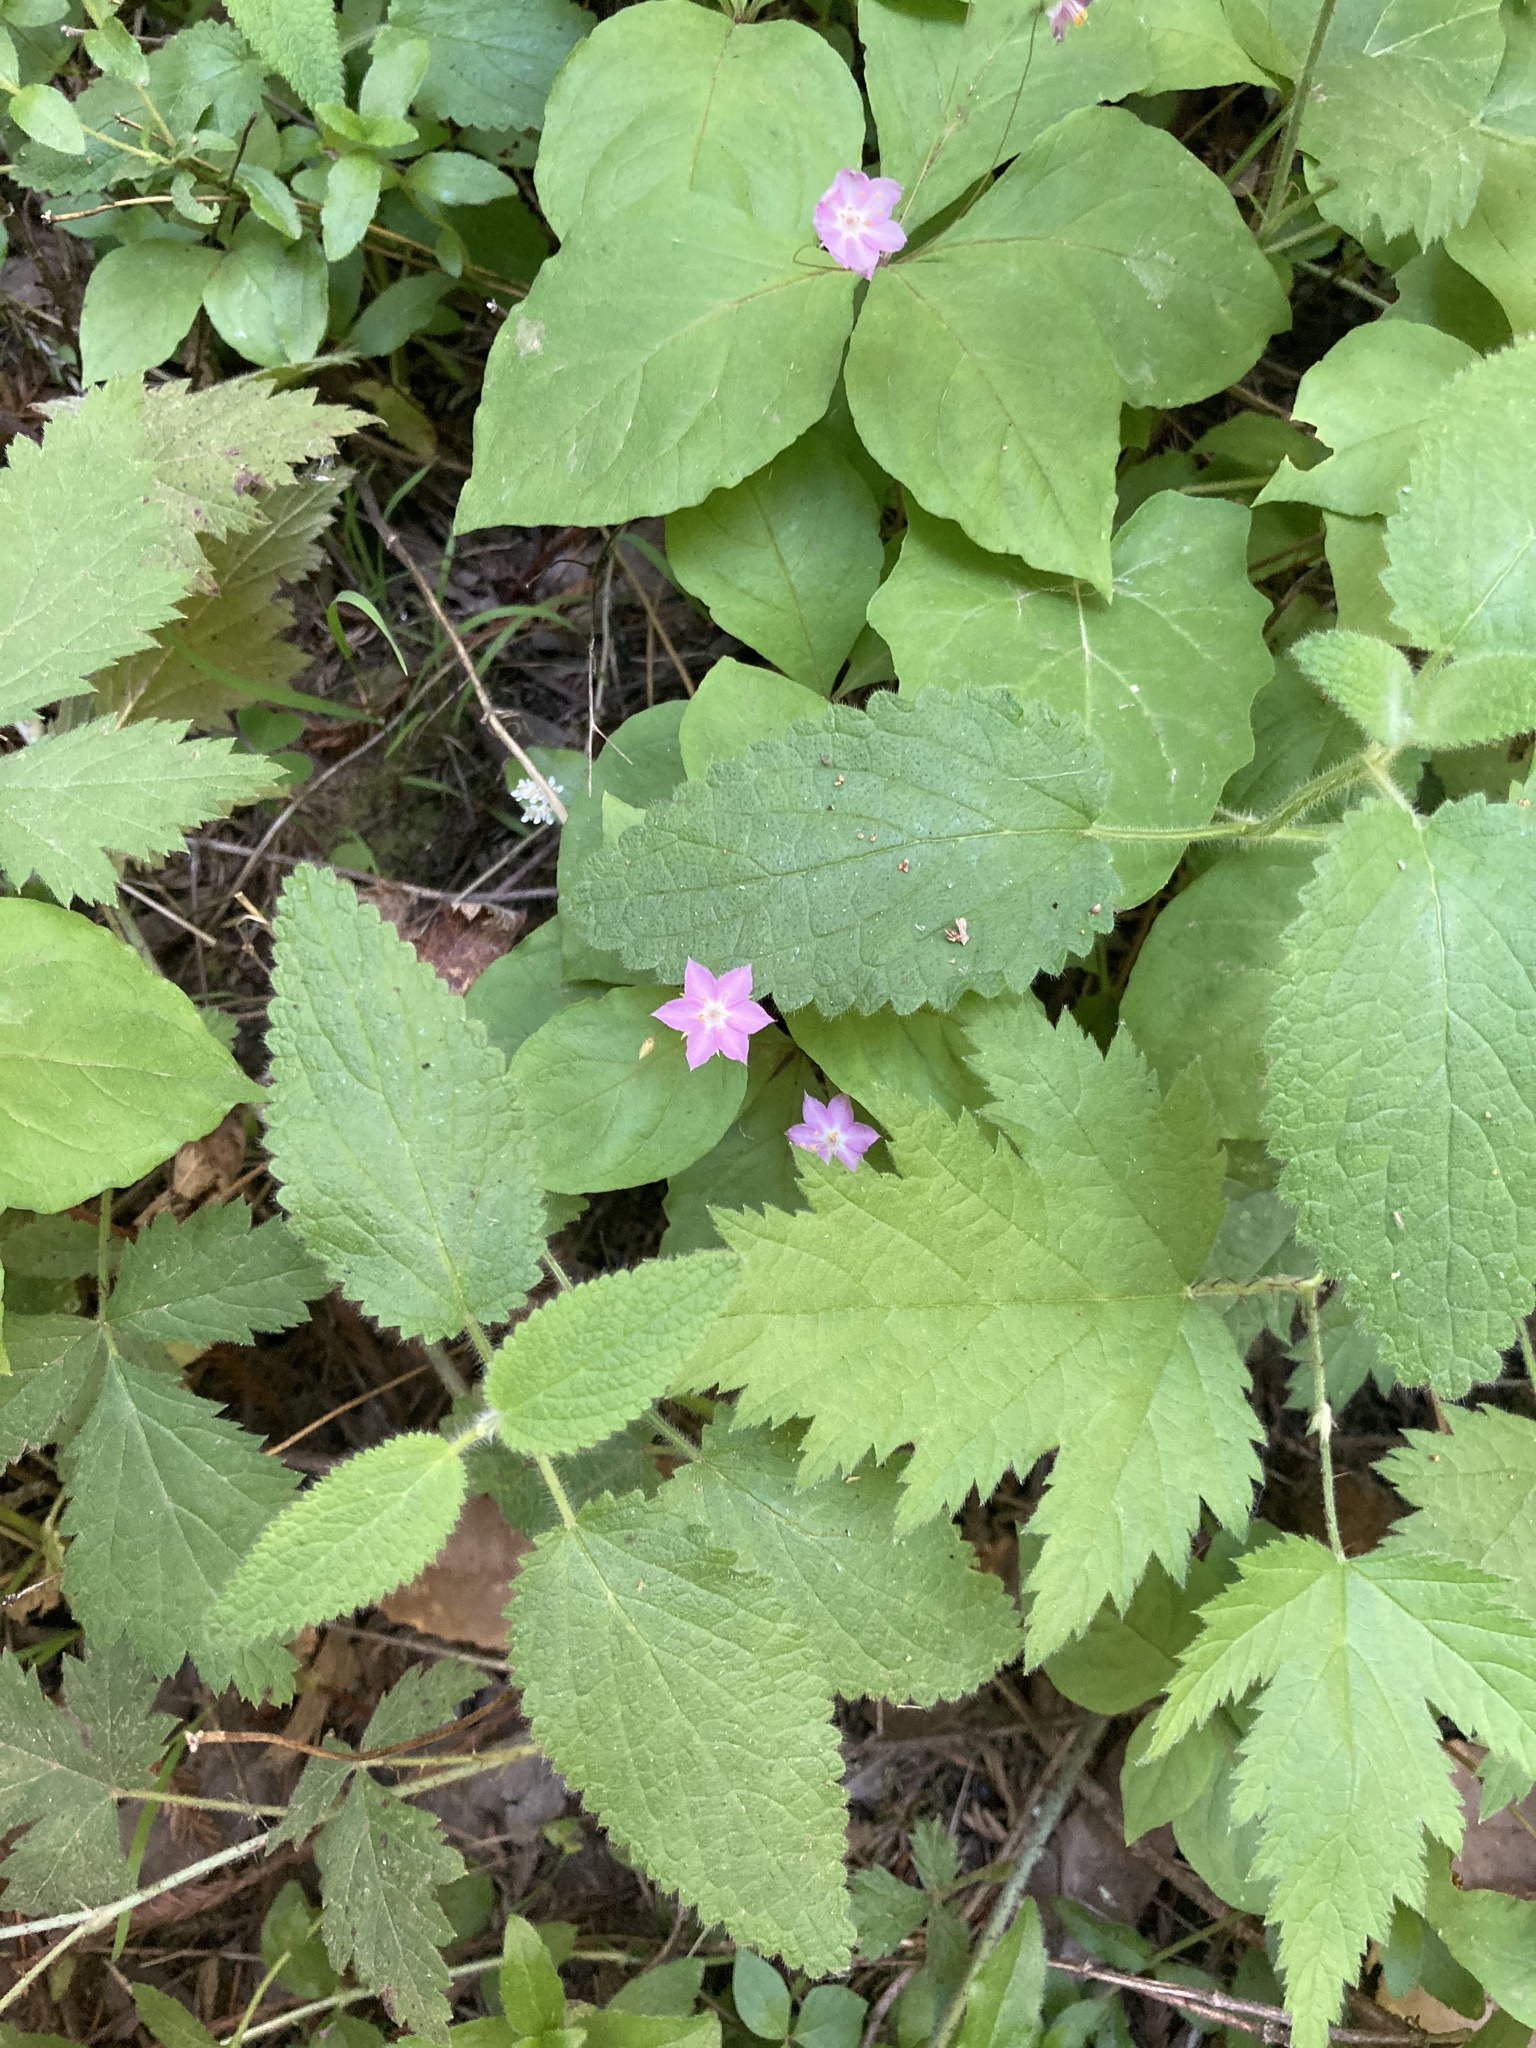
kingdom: Plantae
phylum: Tracheophyta
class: Magnoliopsida
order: Ericales
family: Primulaceae
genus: Lysimachia
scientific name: Lysimachia latifolia
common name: Pacific starflower
